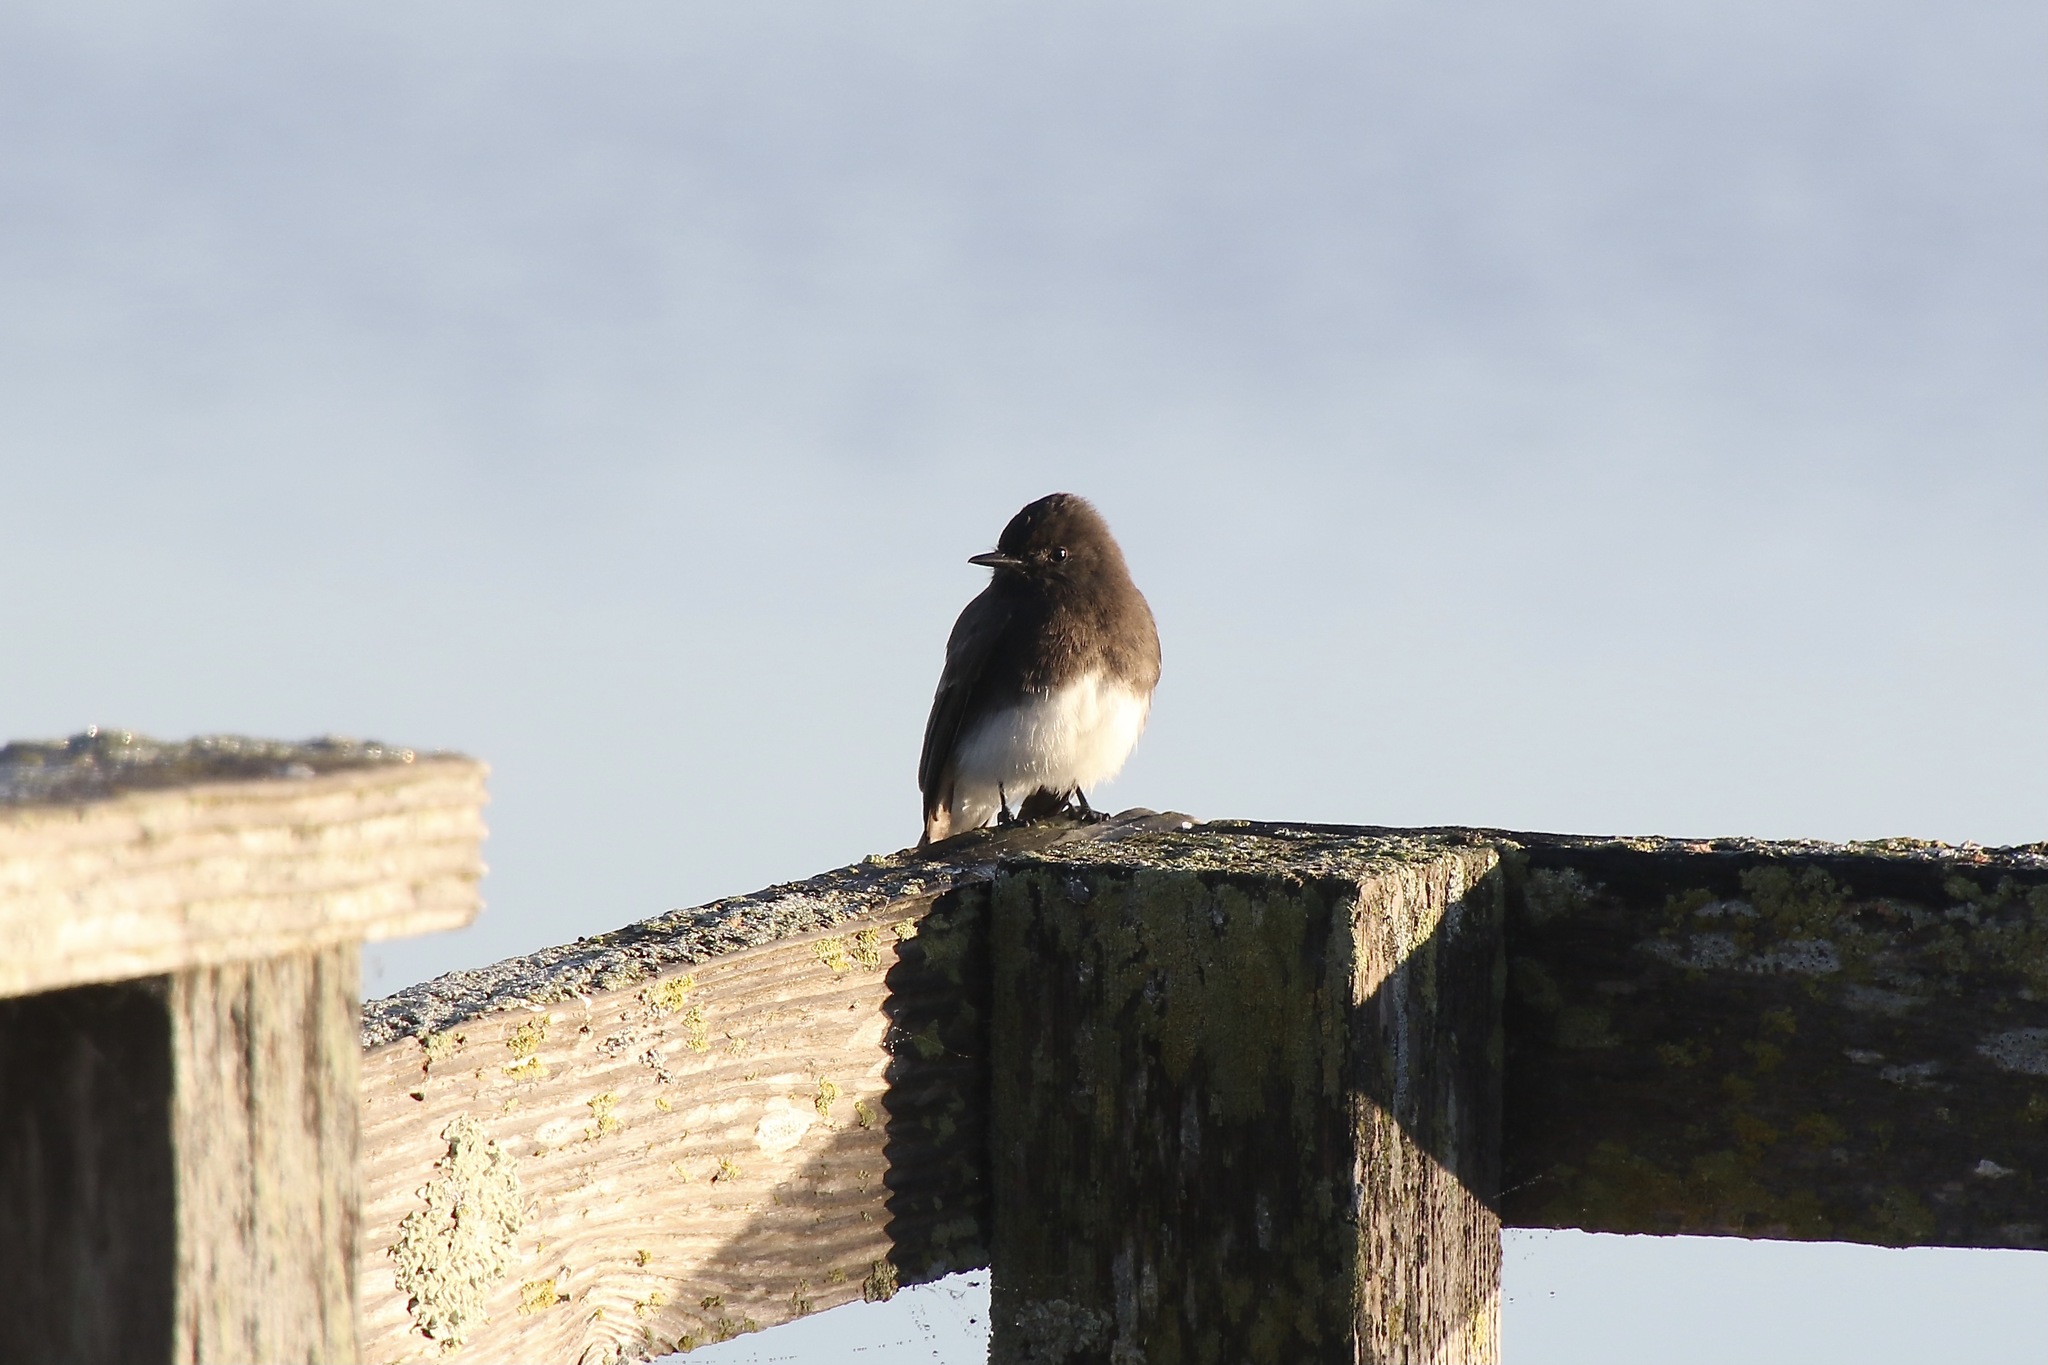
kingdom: Animalia
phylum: Chordata
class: Aves
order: Passeriformes
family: Tyrannidae
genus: Sayornis
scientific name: Sayornis nigricans
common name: Black phoebe
